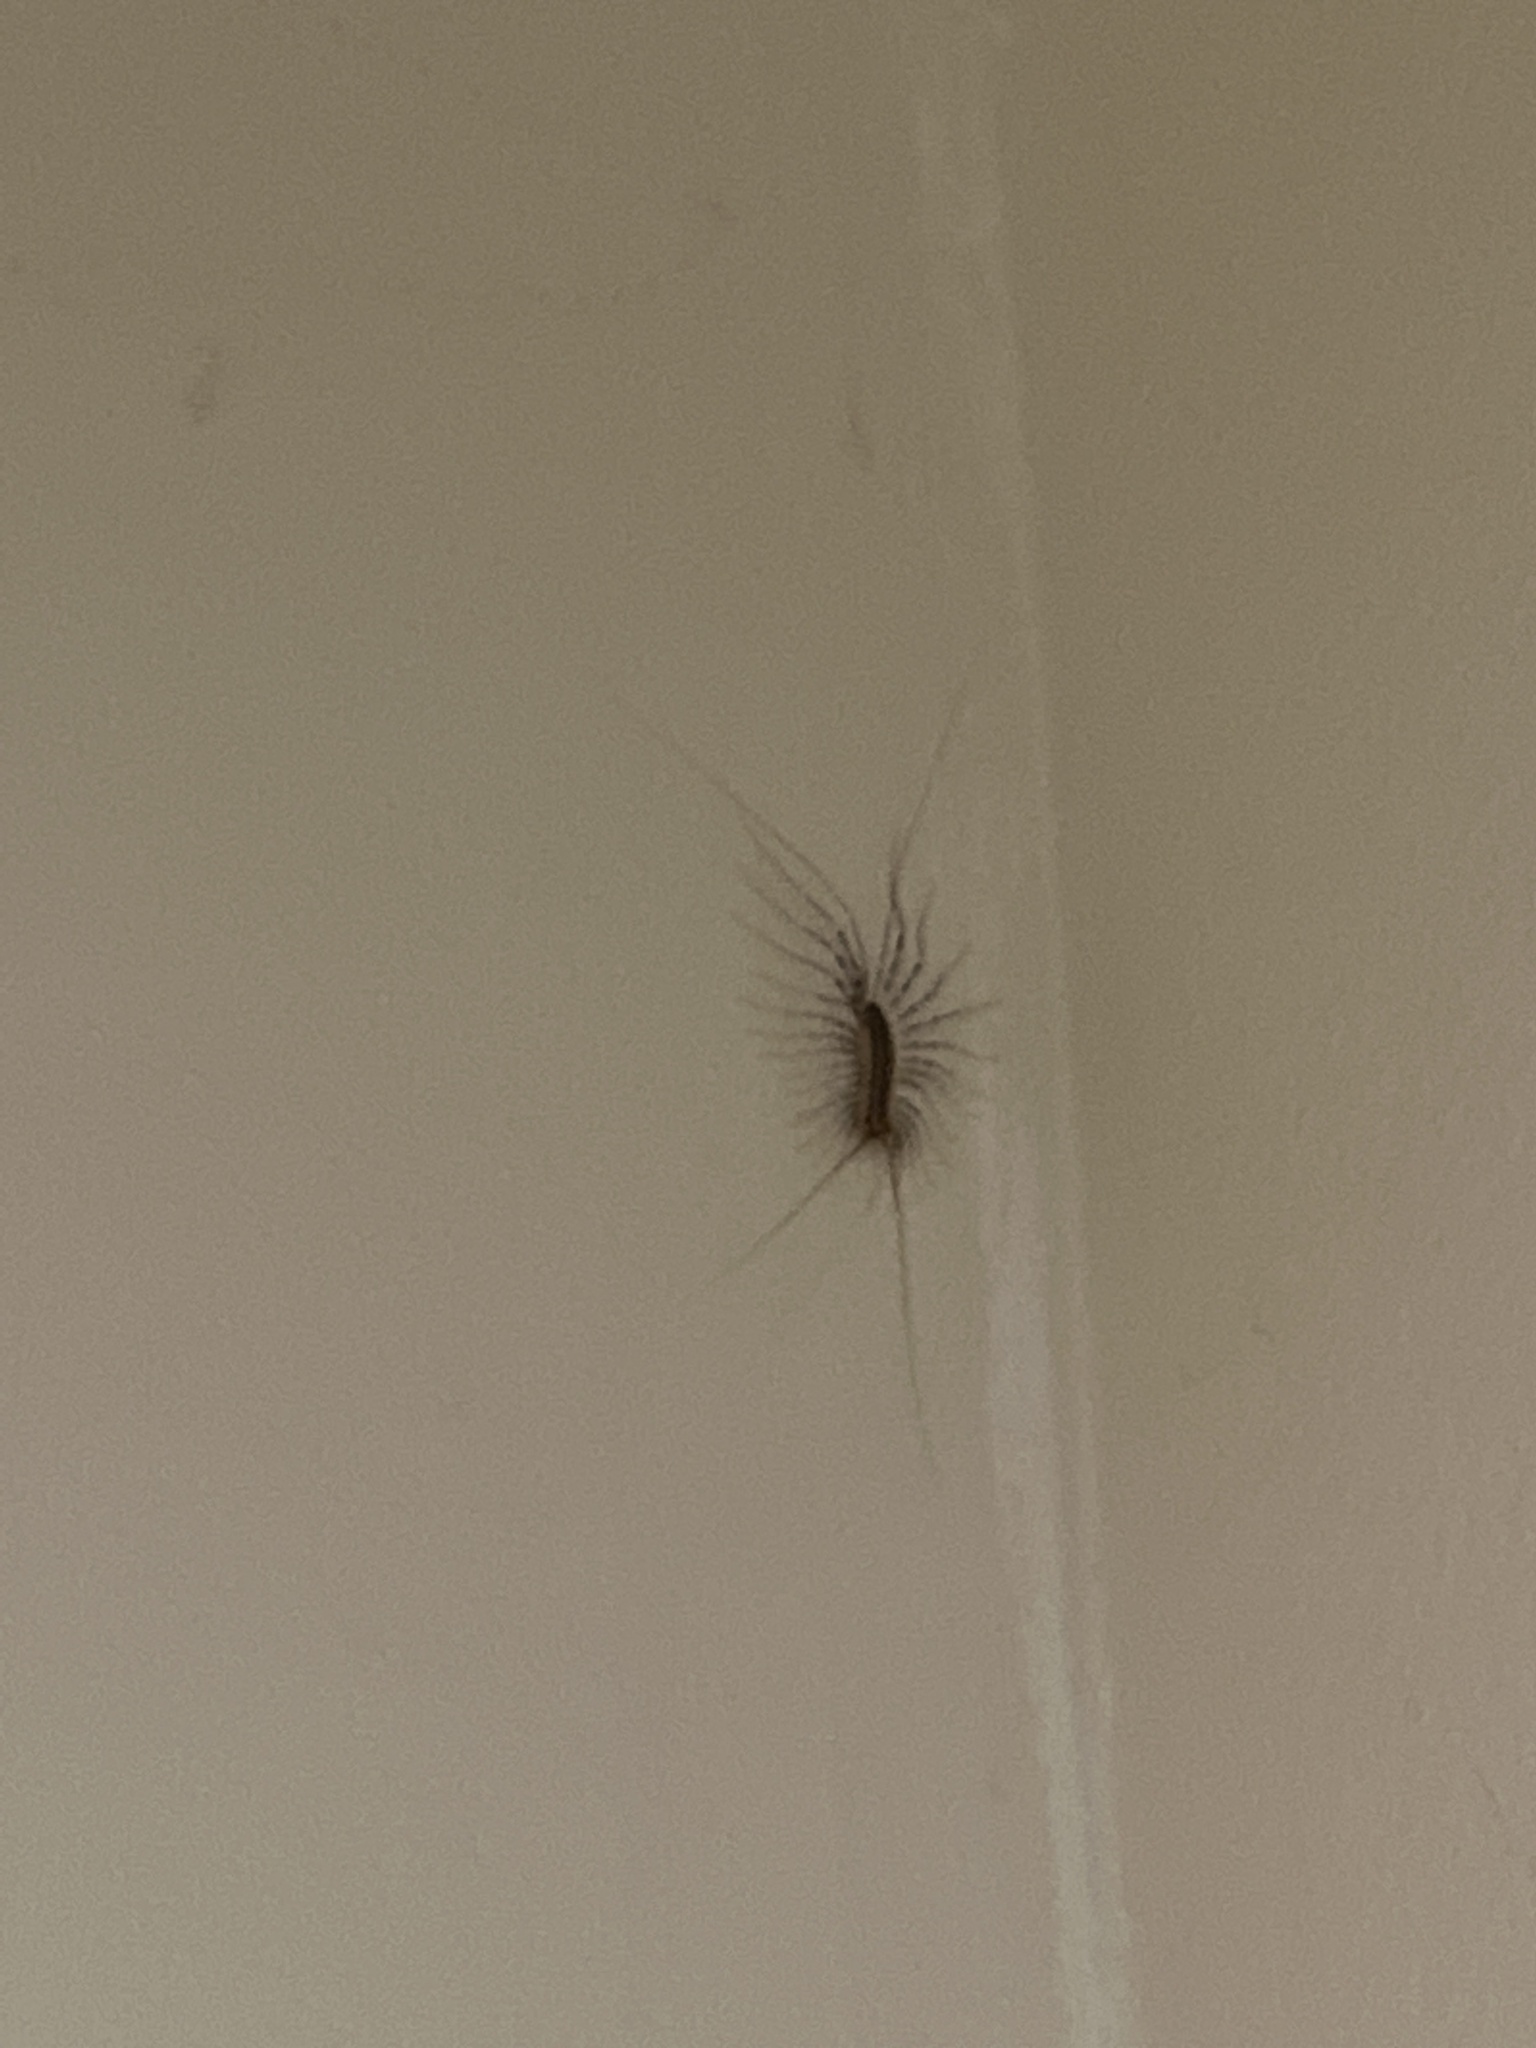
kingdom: Animalia
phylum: Arthropoda
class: Chilopoda
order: Scutigeromorpha
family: Scutigeridae
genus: Scutigera
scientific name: Scutigera coleoptrata
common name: House centipede
